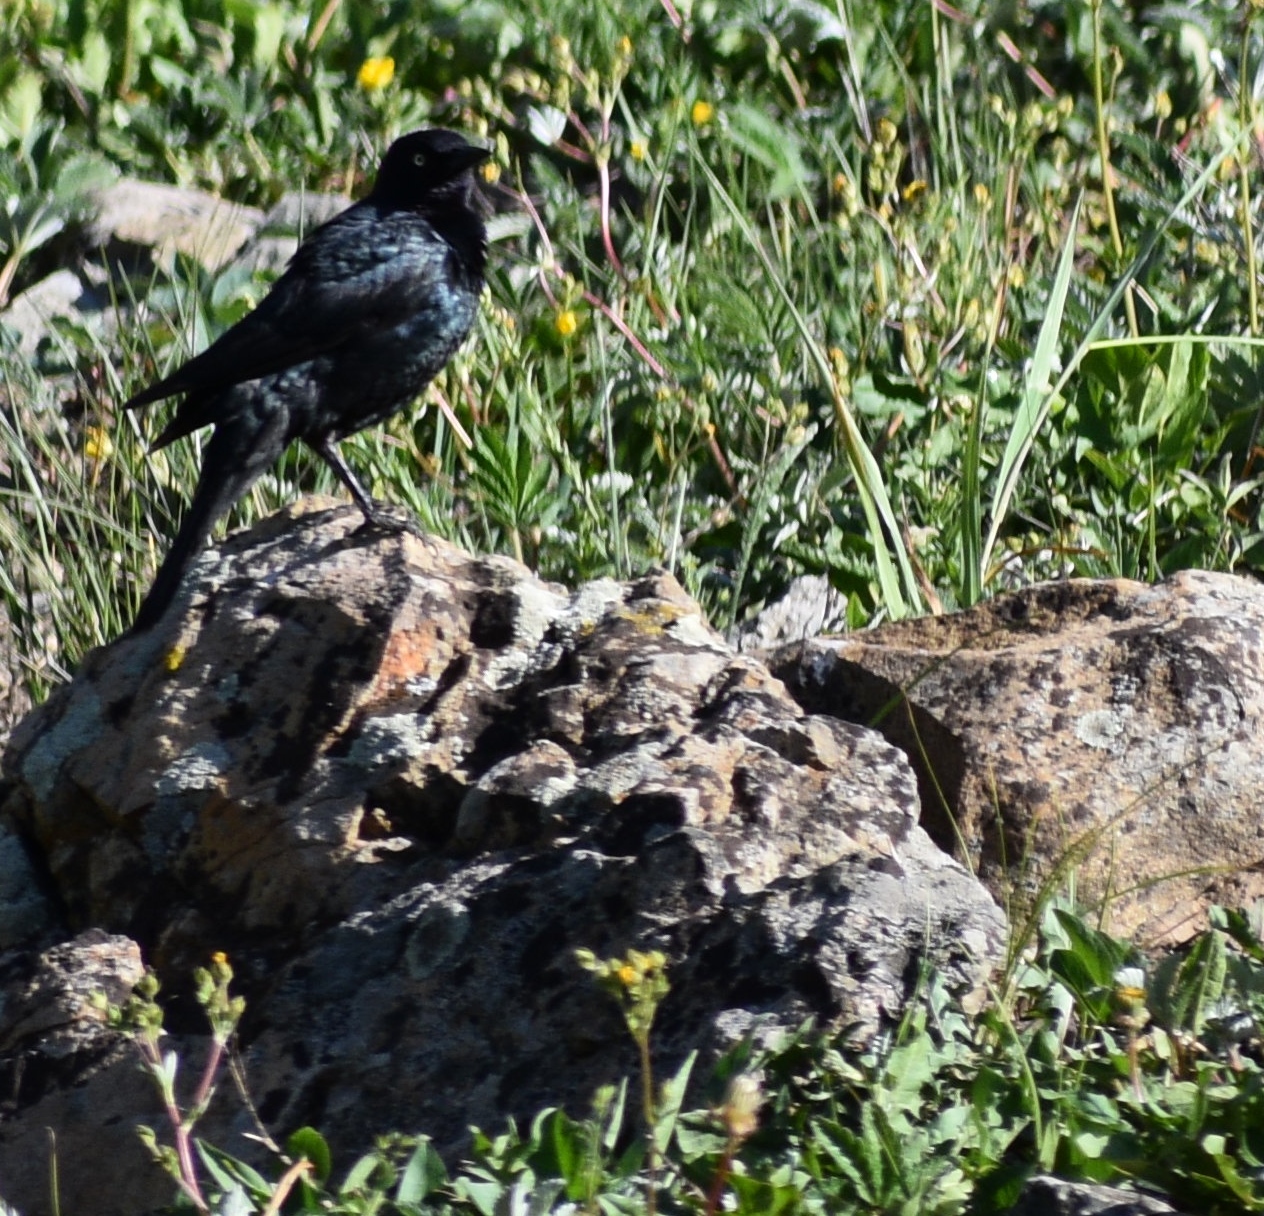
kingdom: Animalia
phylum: Chordata
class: Aves
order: Passeriformes
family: Icteridae
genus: Euphagus
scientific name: Euphagus cyanocephalus
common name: Brewer's blackbird
